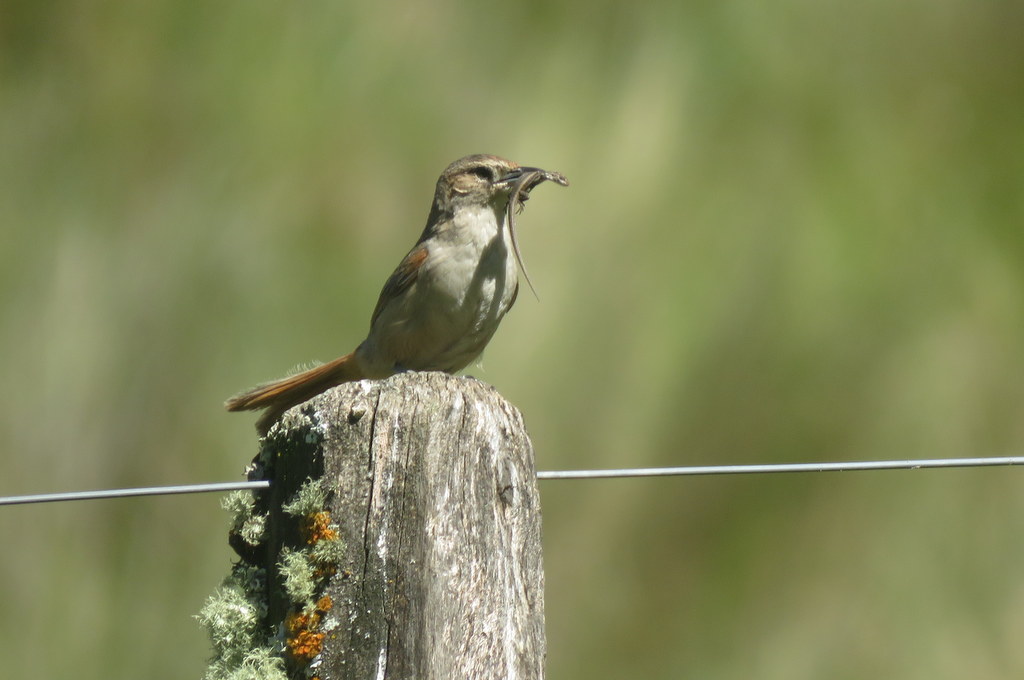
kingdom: Animalia
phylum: Chordata
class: Aves
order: Passeriformes
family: Furnariidae
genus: Phacellodomus
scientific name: Phacellodomus striaticeps
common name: Streak-fronted thornbird
